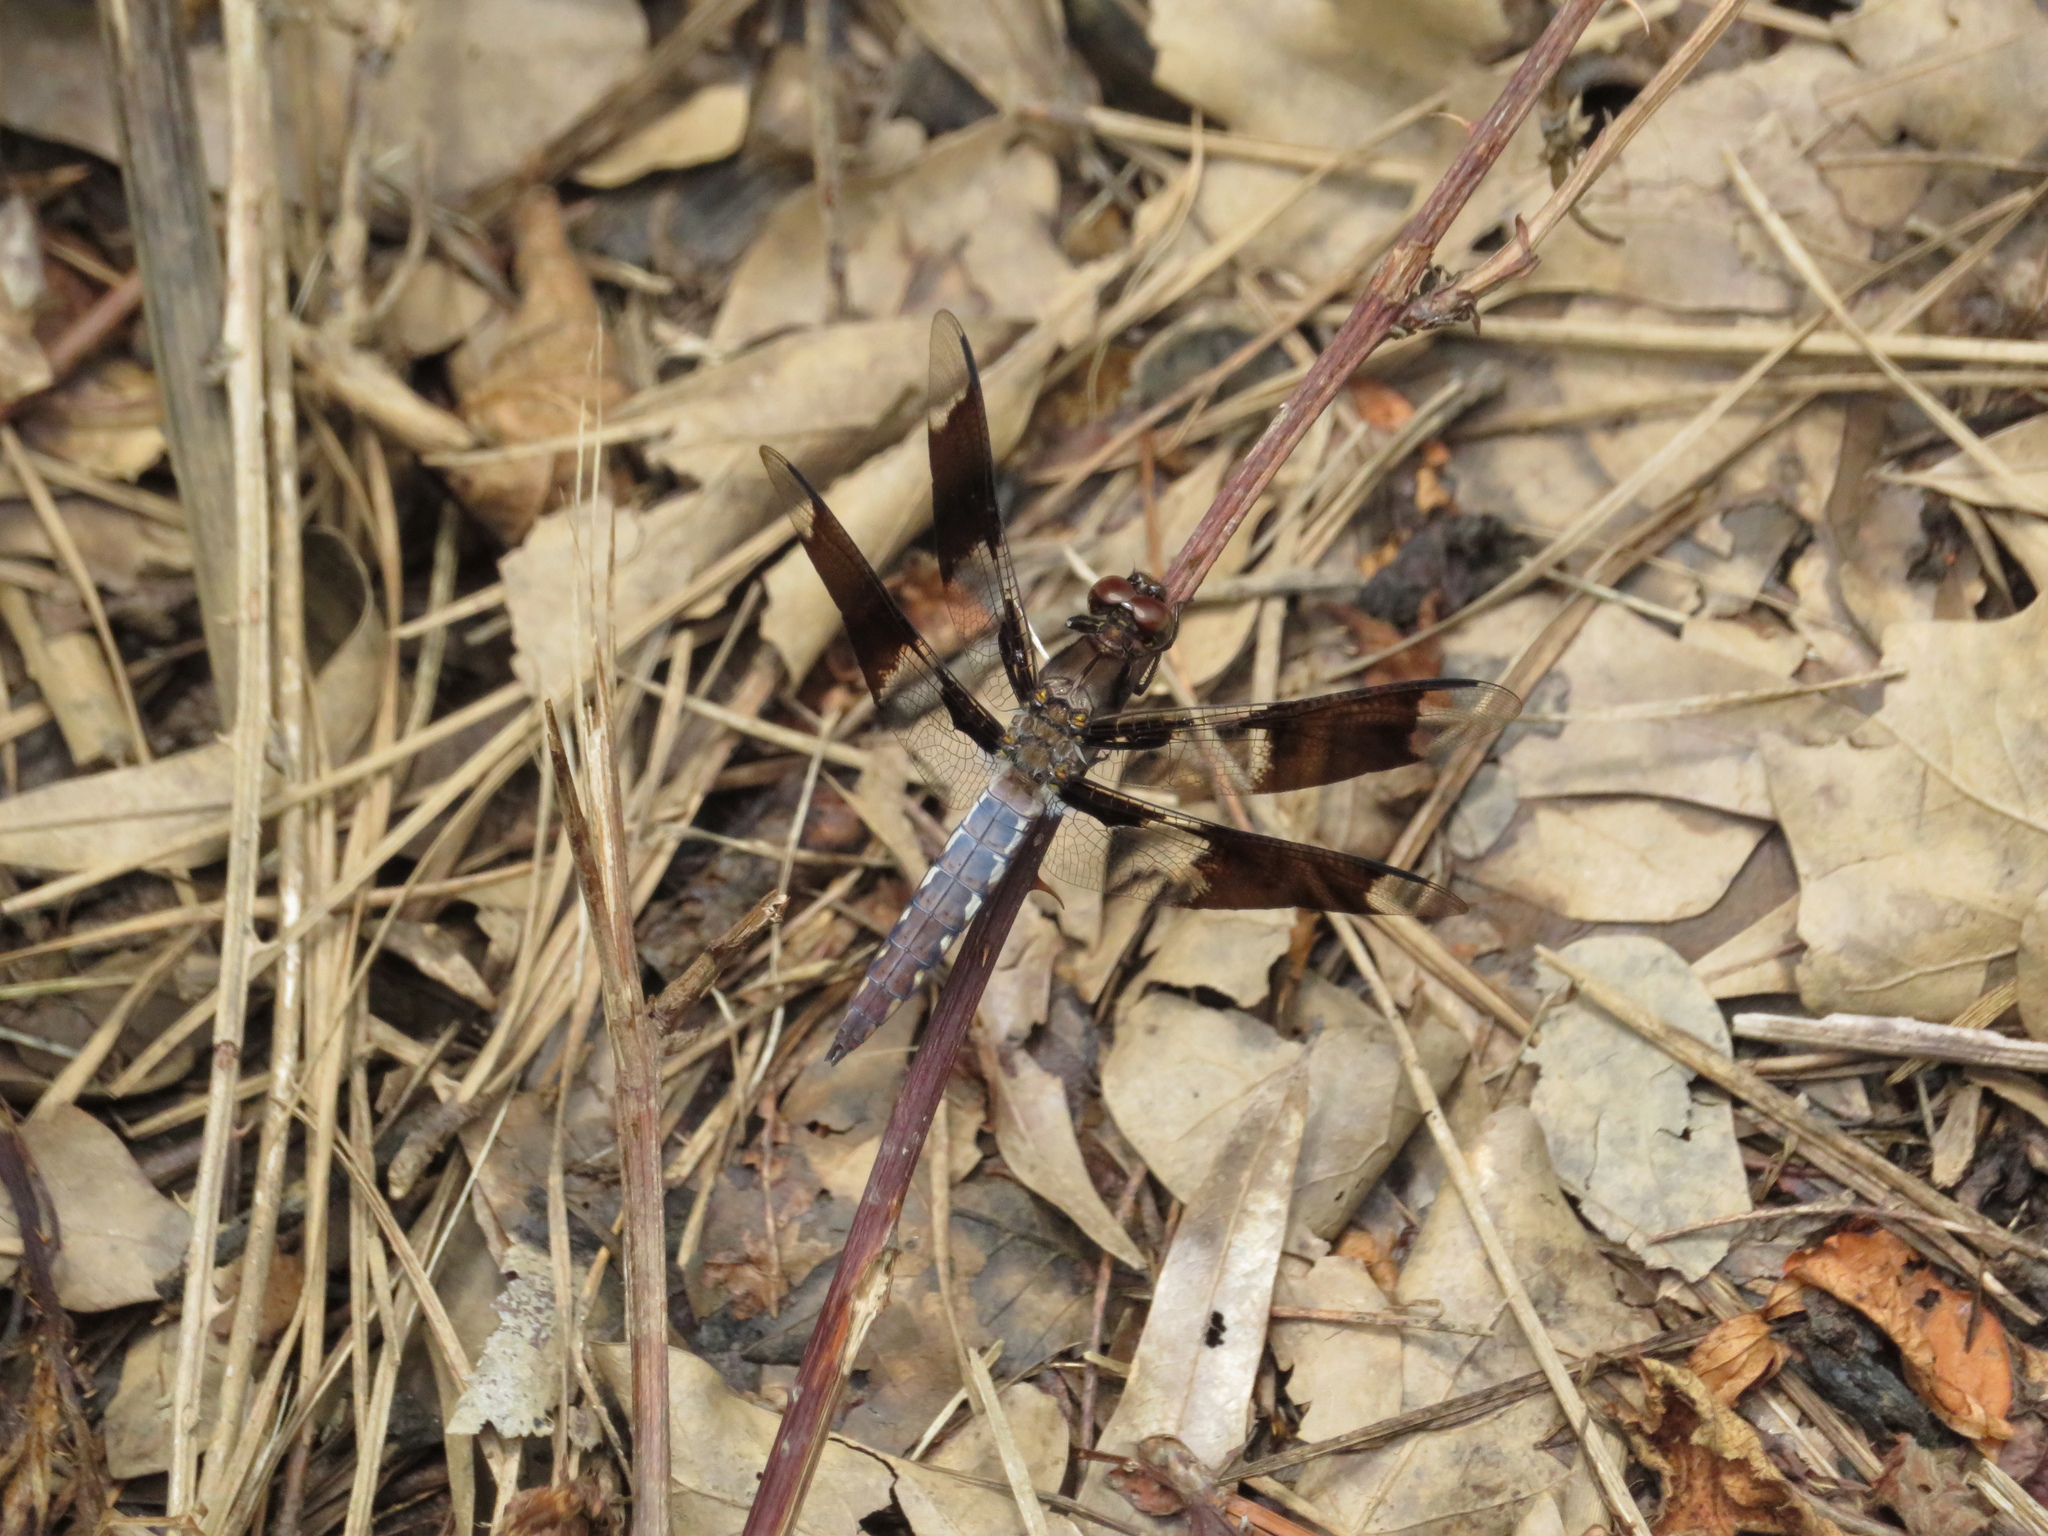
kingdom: Animalia
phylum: Arthropoda
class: Insecta
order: Odonata
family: Libellulidae
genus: Plathemis
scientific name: Plathemis lydia
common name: Common whitetail
